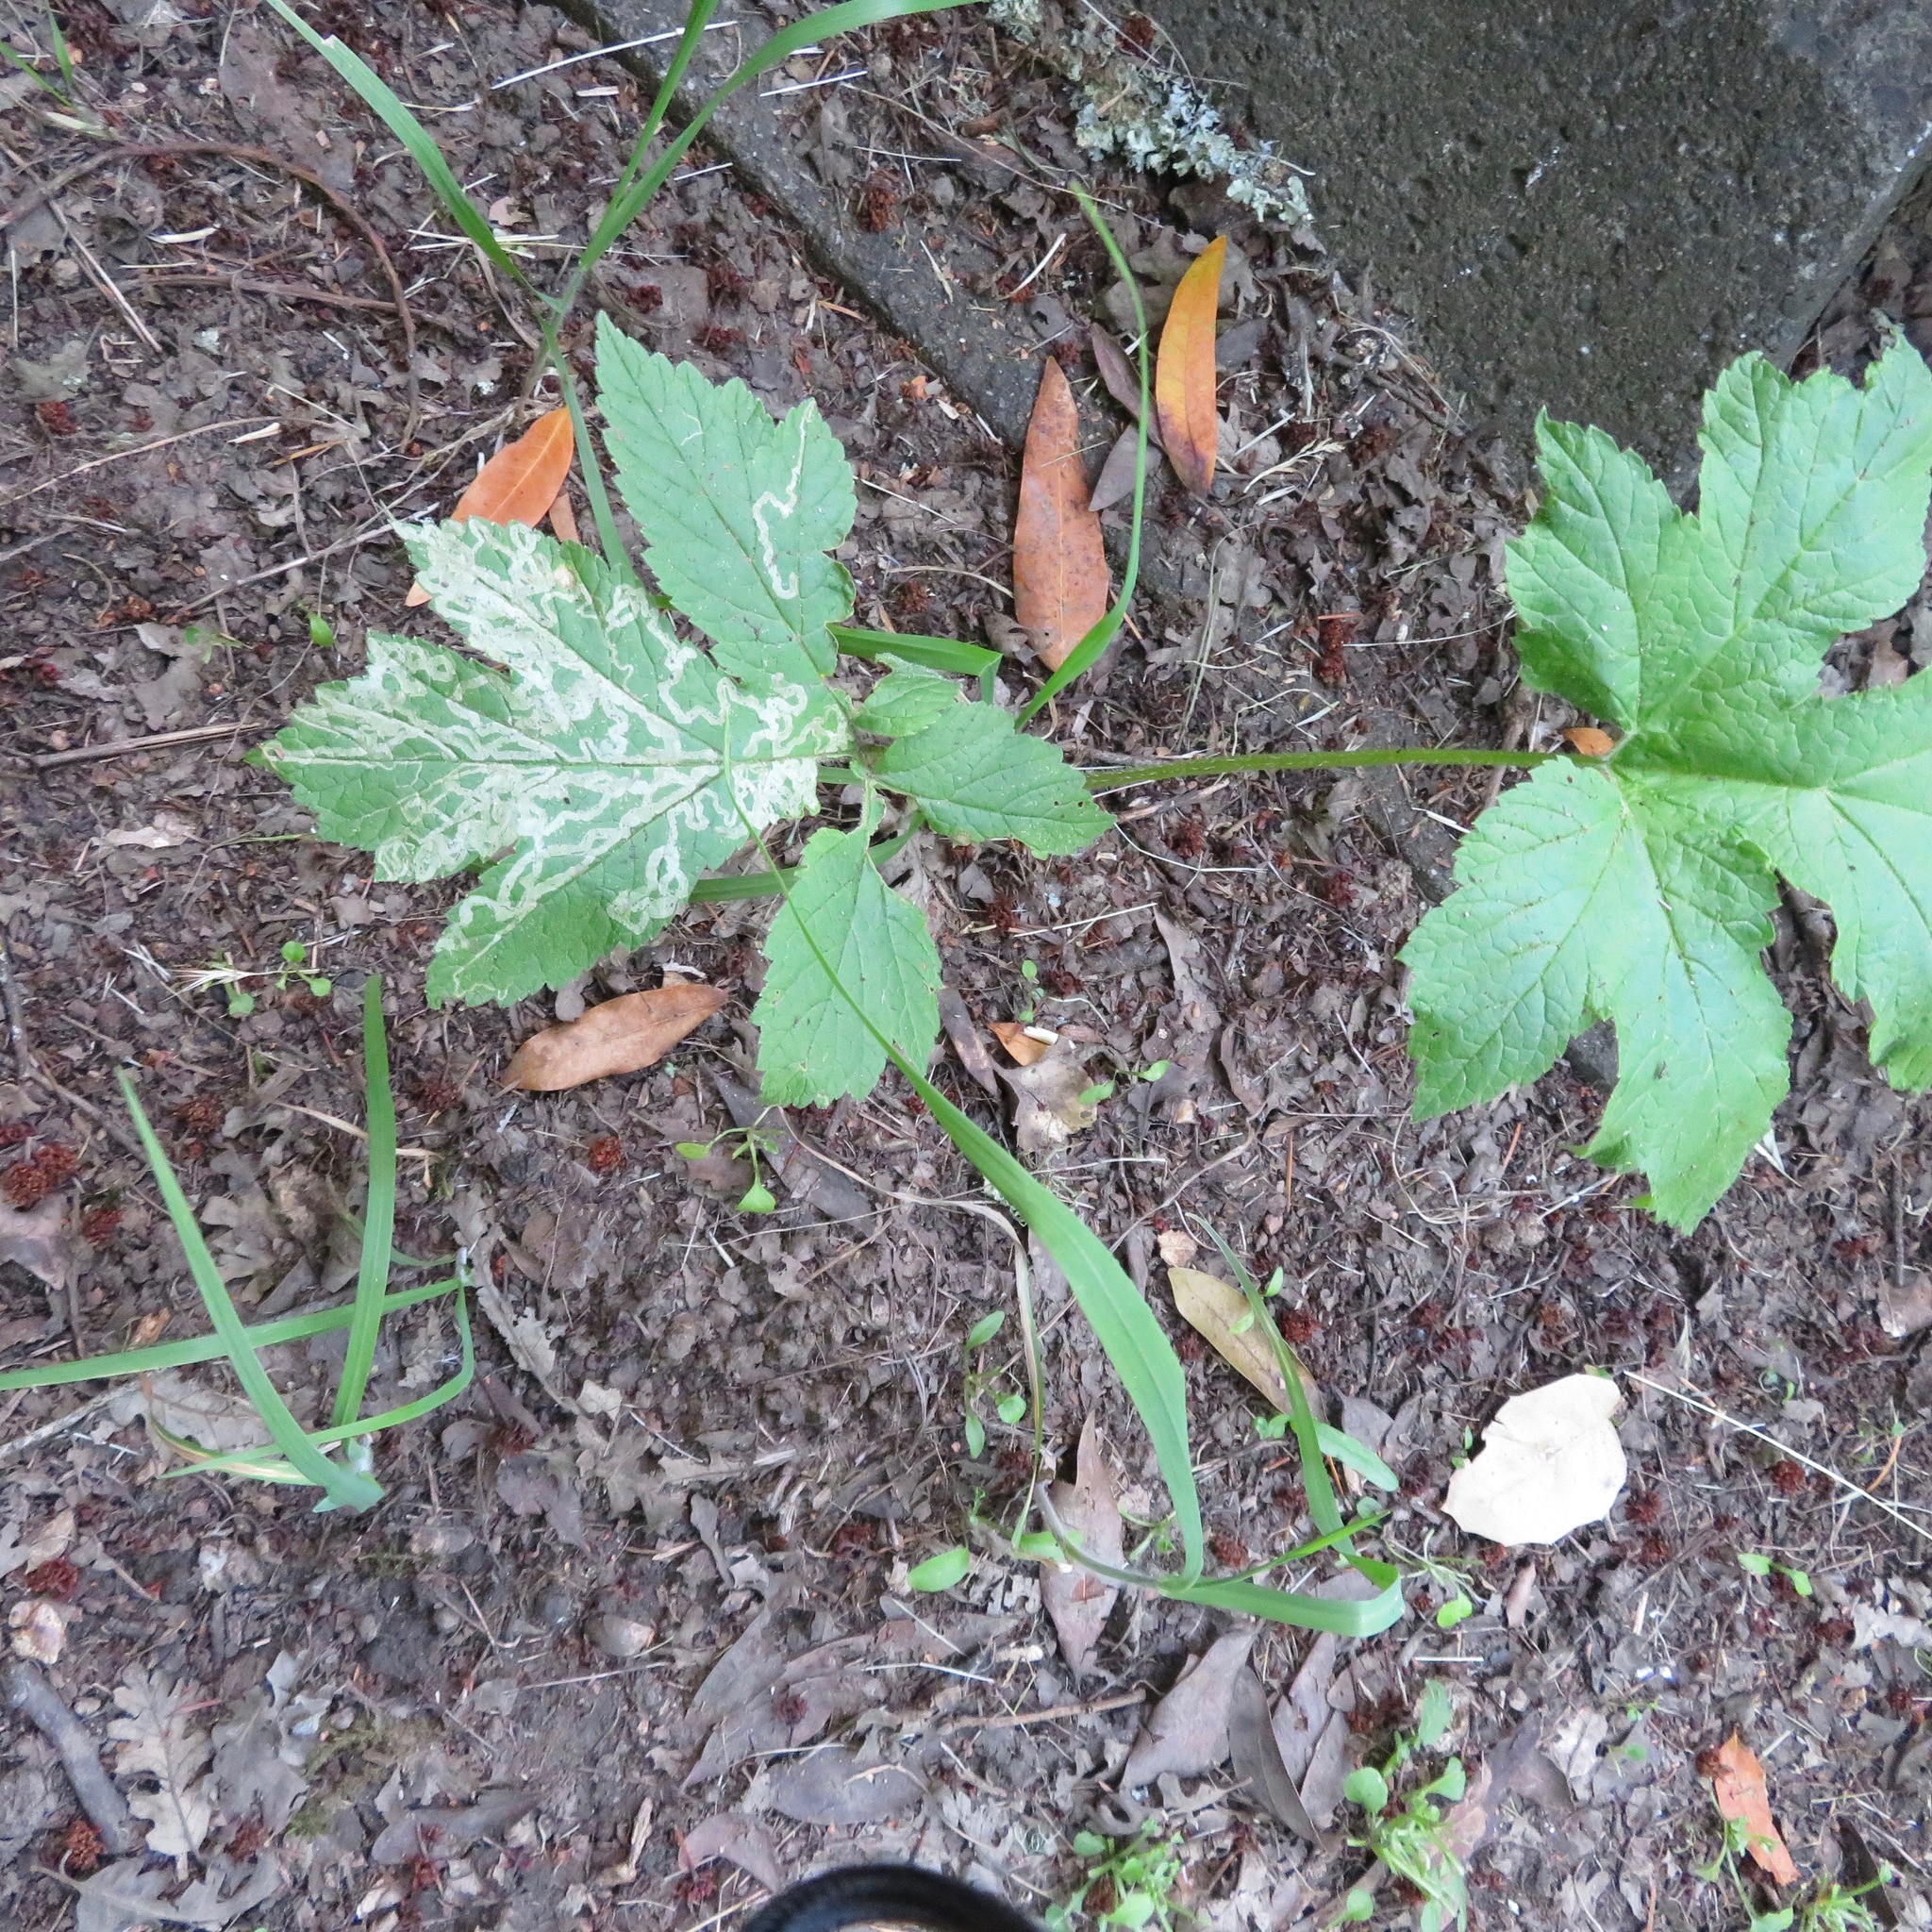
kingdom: Plantae
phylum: Tracheophyta
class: Magnoliopsida
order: Apiales
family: Apiaceae
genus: Heracleum
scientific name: Heracleum maximum
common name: American cow parsnip
